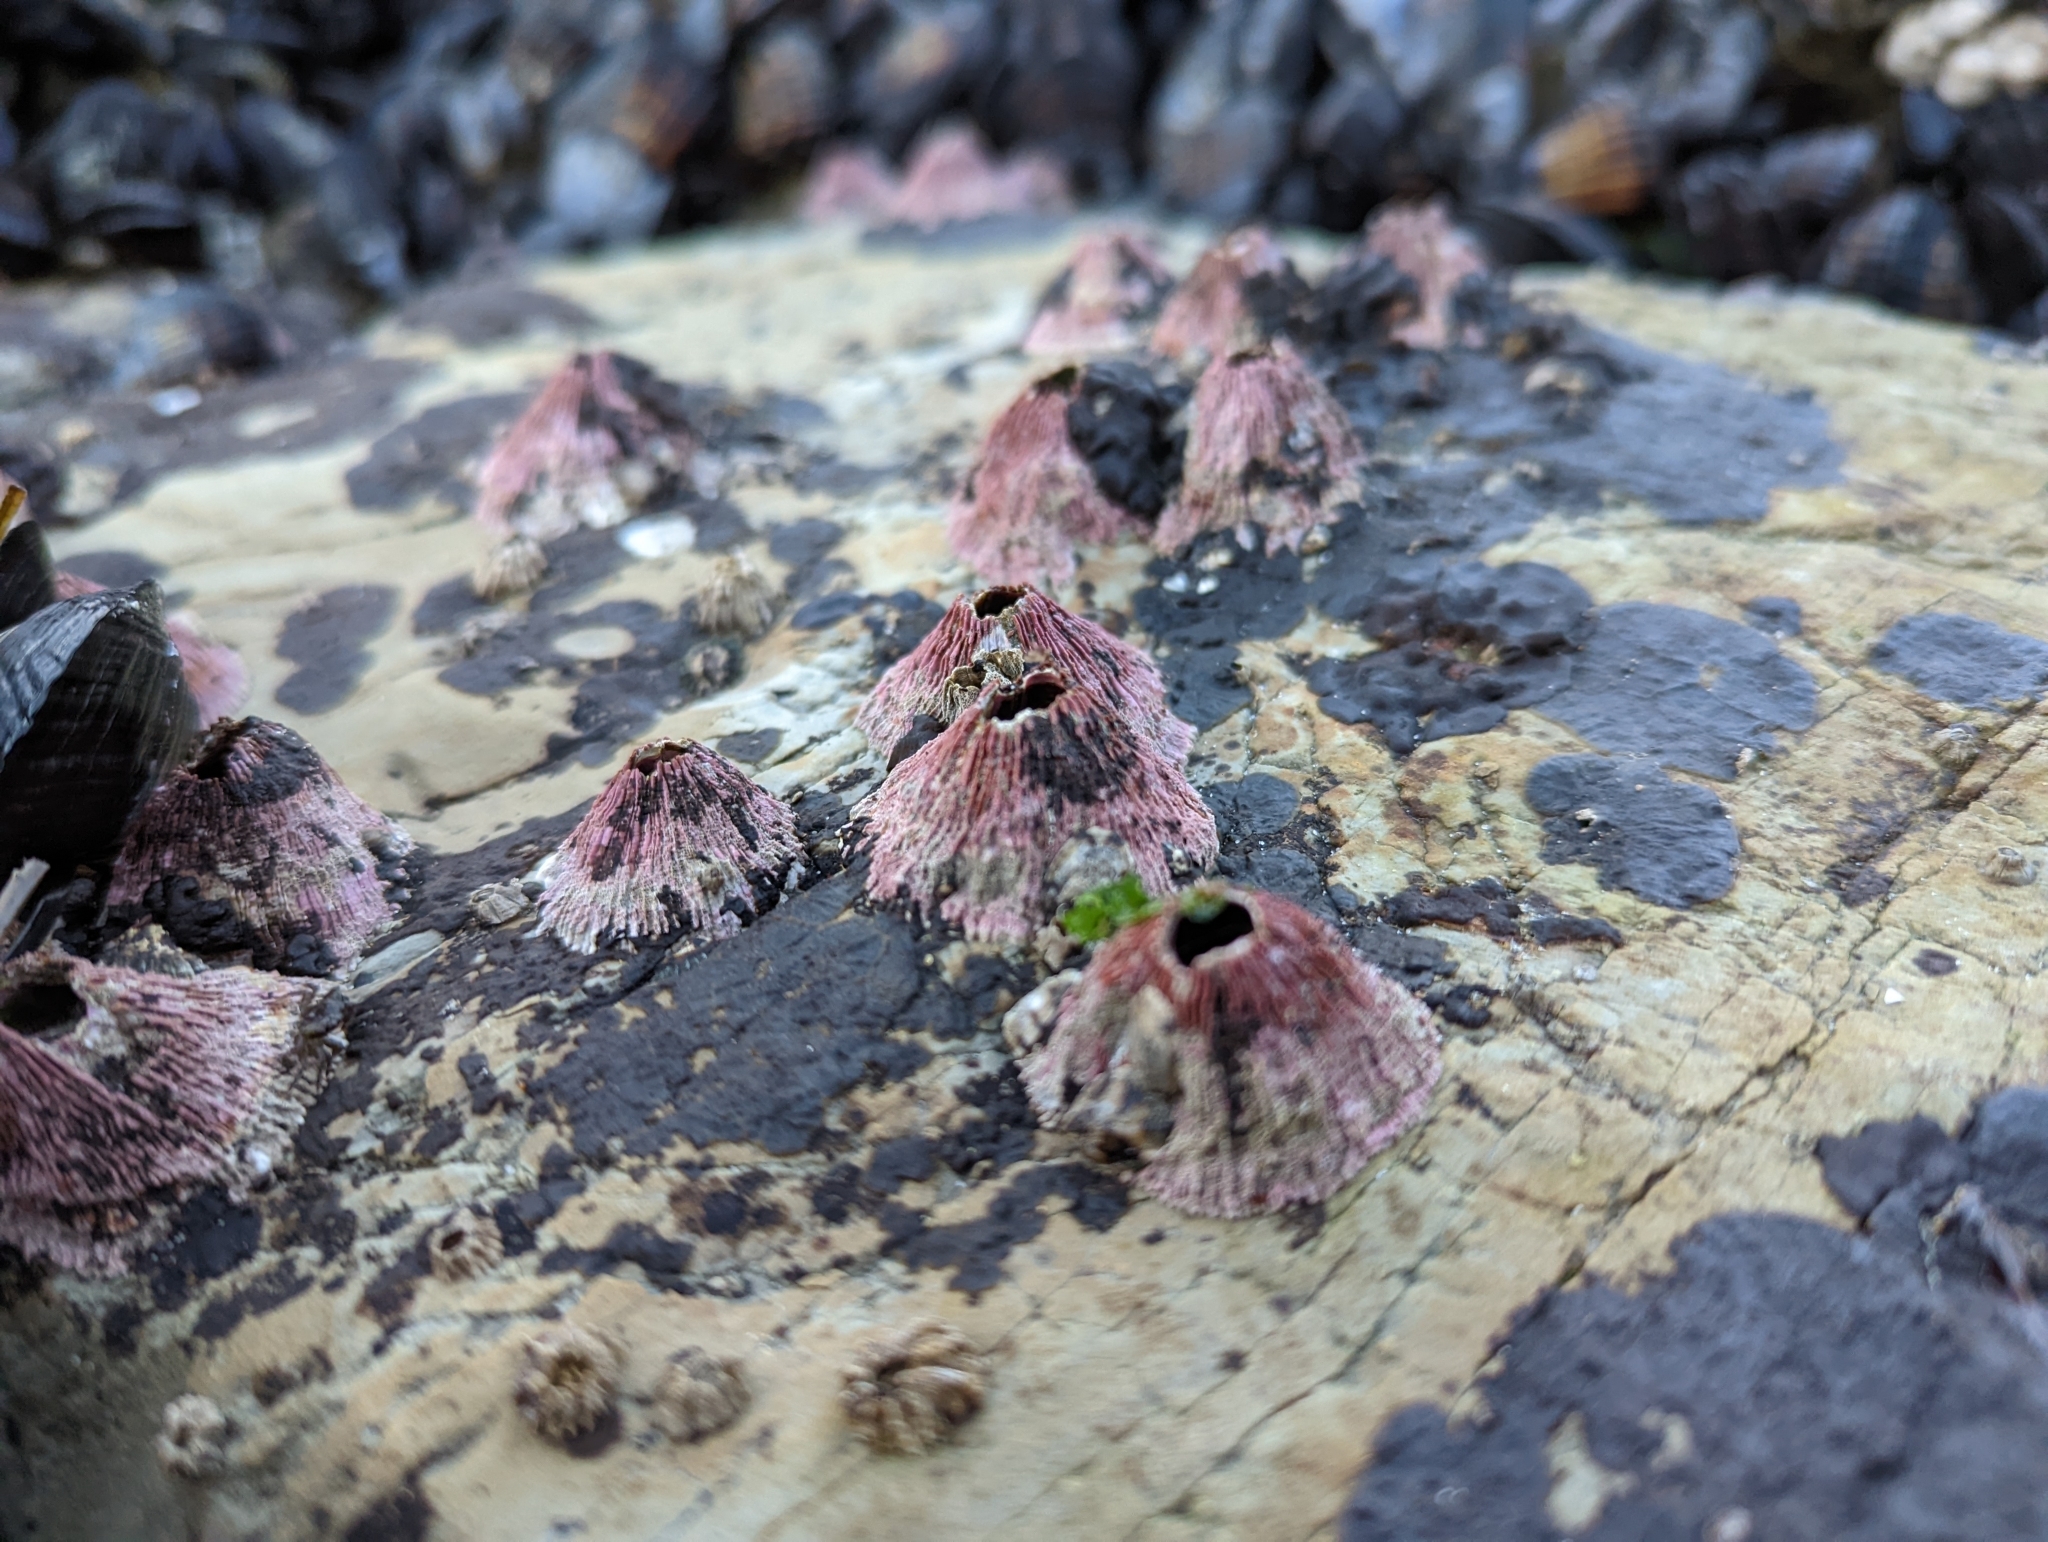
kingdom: Animalia
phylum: Arthropoda
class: Maxillopoda
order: Sessilia
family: Tetraclitidae
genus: Tetraclita
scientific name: Tetraclita rubescens
